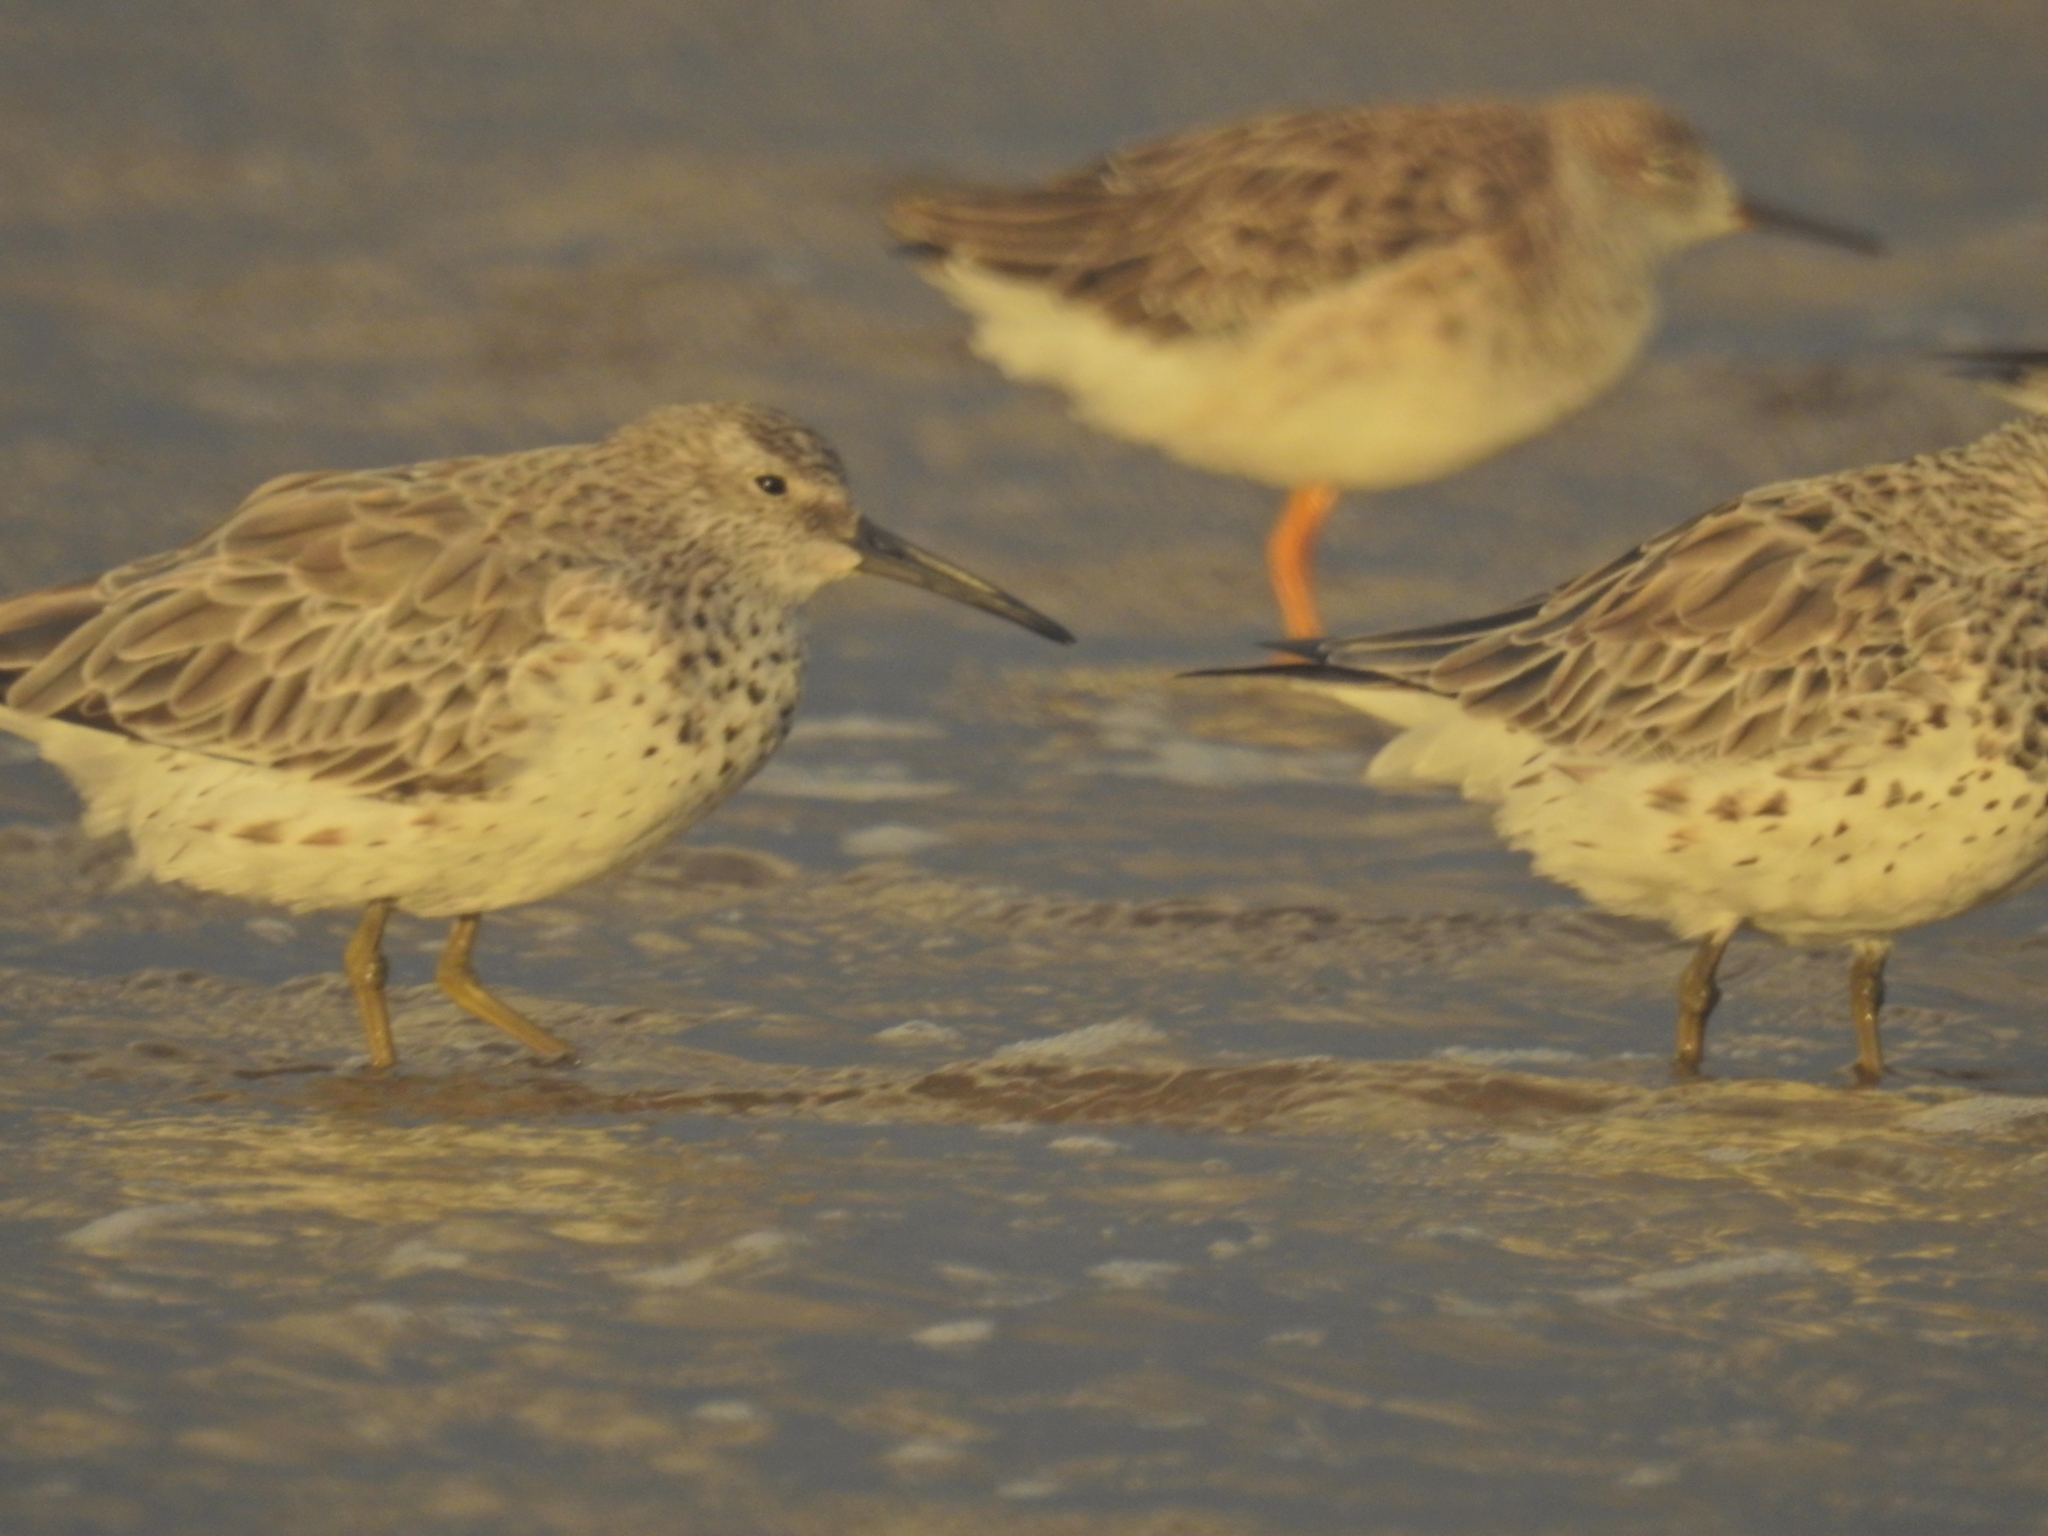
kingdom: Animalia
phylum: Chordata
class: Aves
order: Charadriiformes
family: Scolopacidae
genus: Calidris
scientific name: Calidris tenuirostris
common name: Great knot
